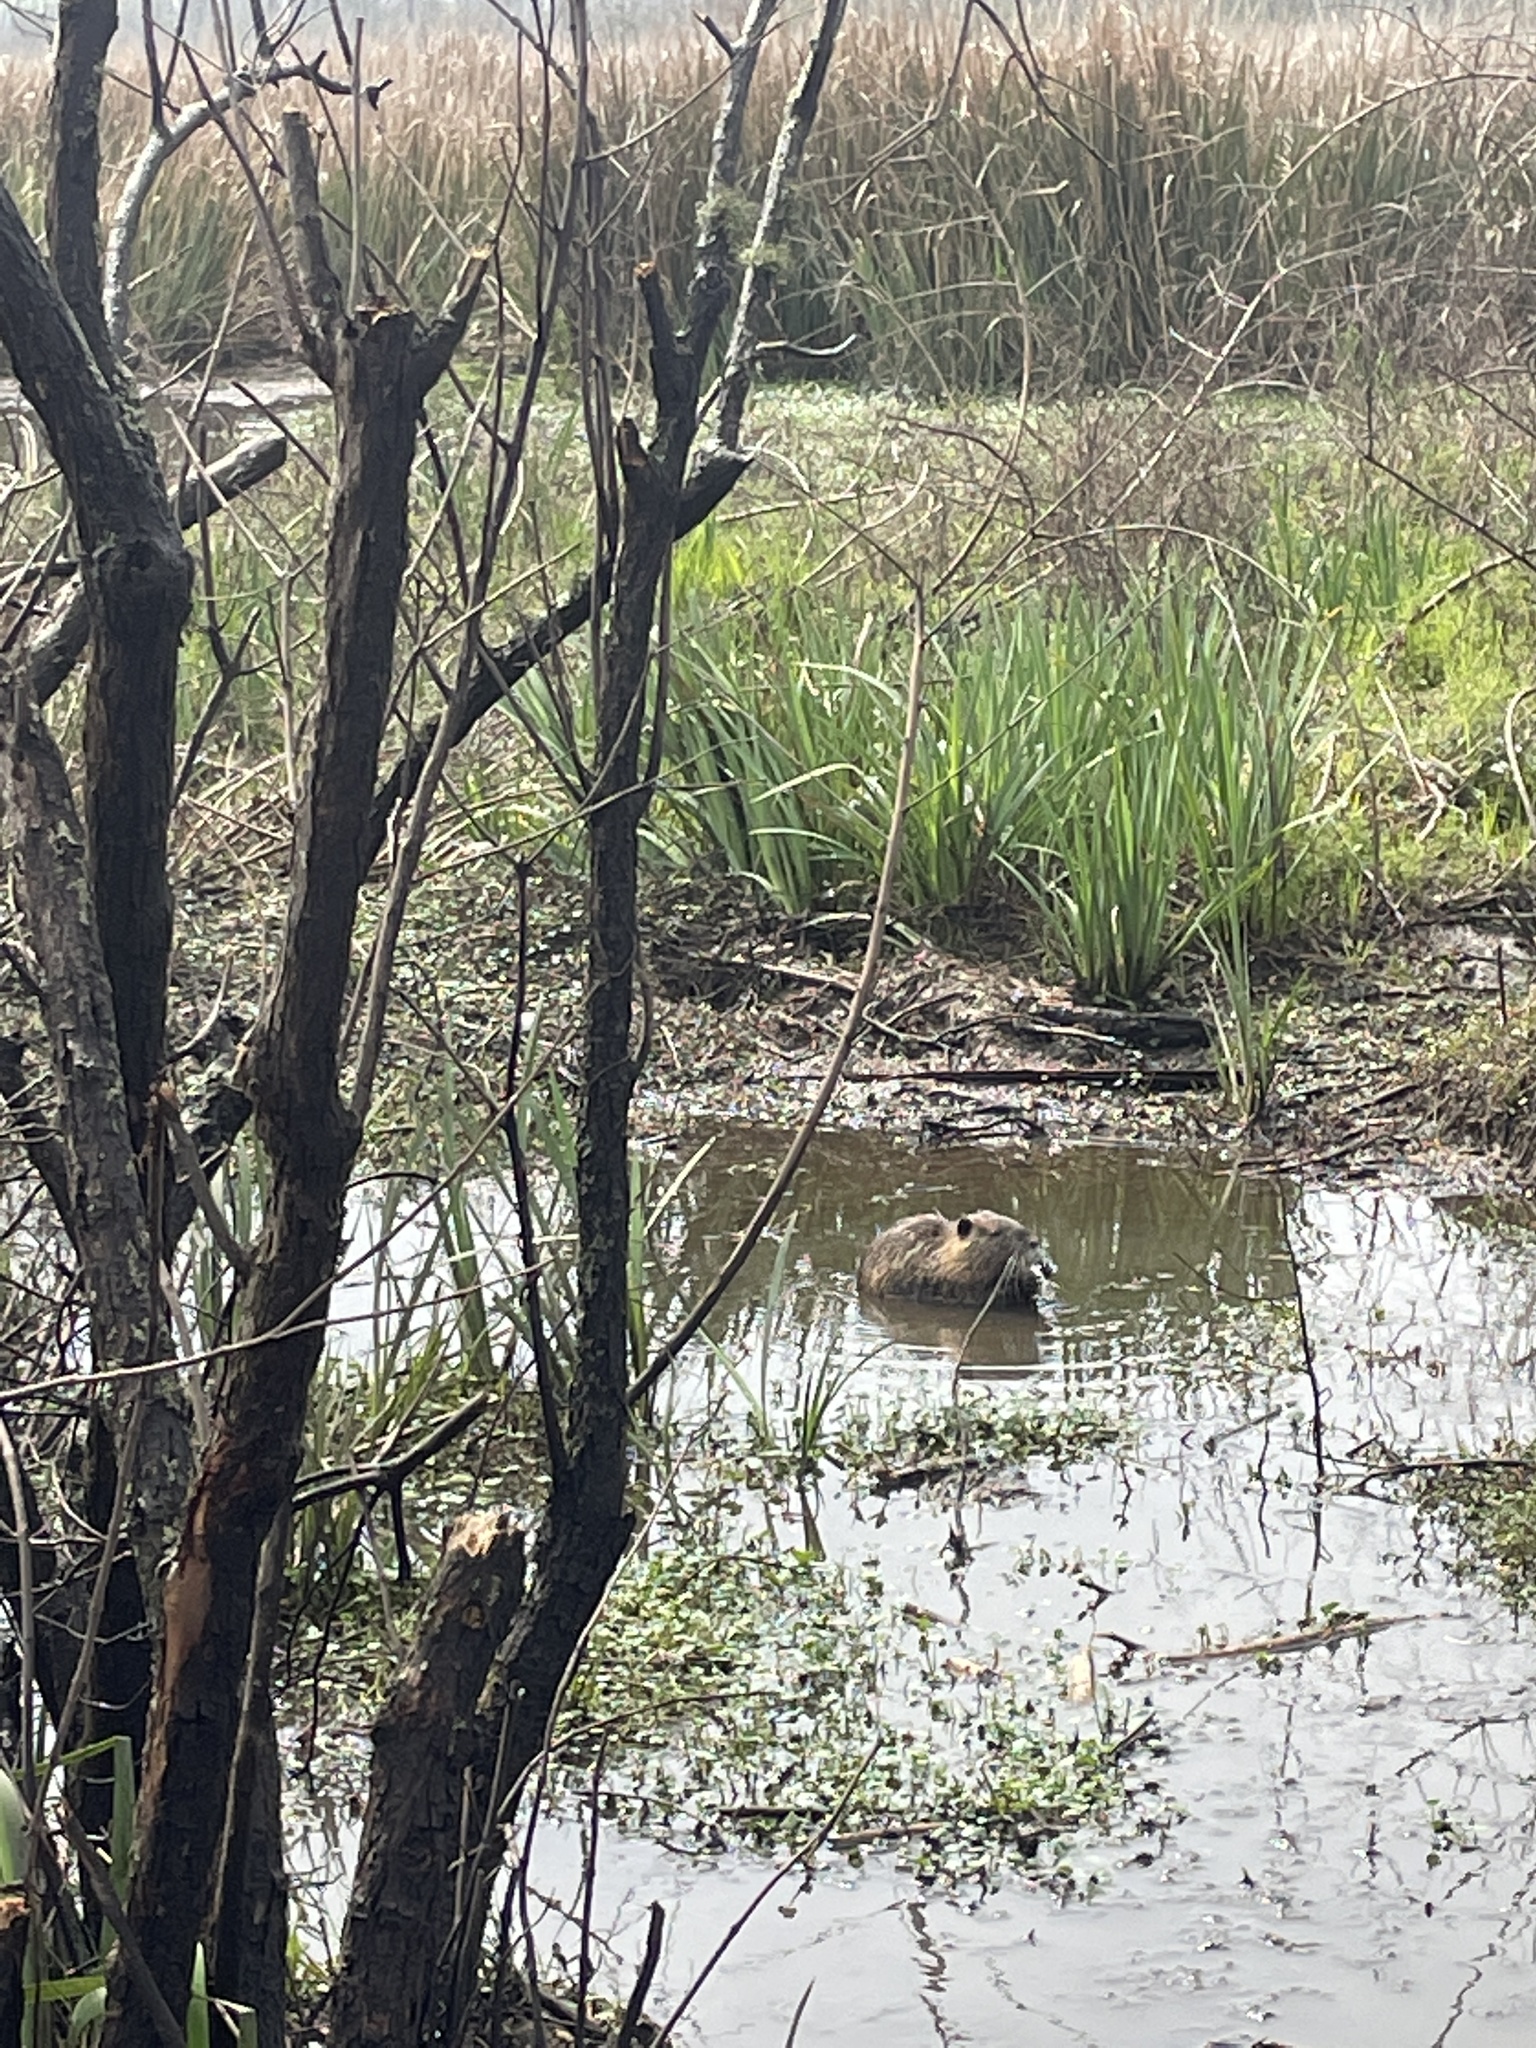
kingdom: Animalia
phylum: Chordata
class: Mammalia
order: Rodentia
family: Myocastoridae
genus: Myocastor
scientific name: Myocastor coypus
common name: Coypu
